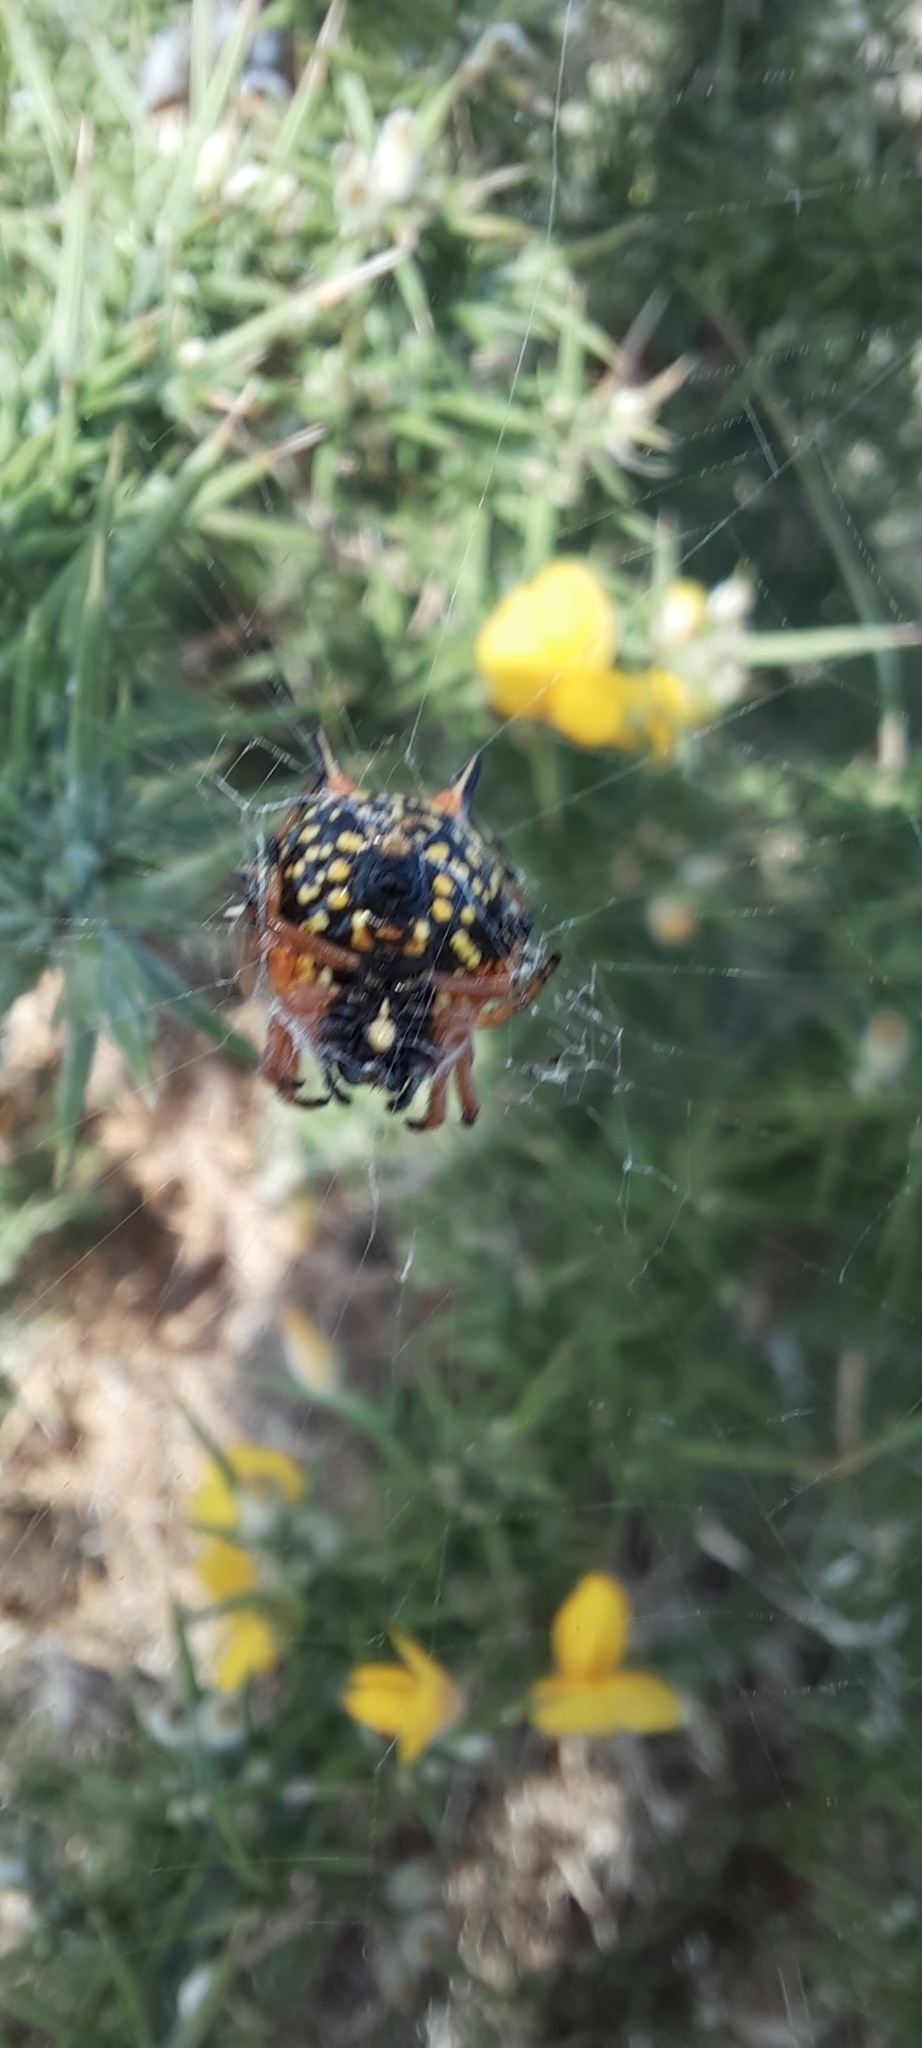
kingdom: Animalia
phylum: Arthropoda
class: Arachnida
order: Araneae
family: Araneidae
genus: Austracantha
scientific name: Austracantha minax
